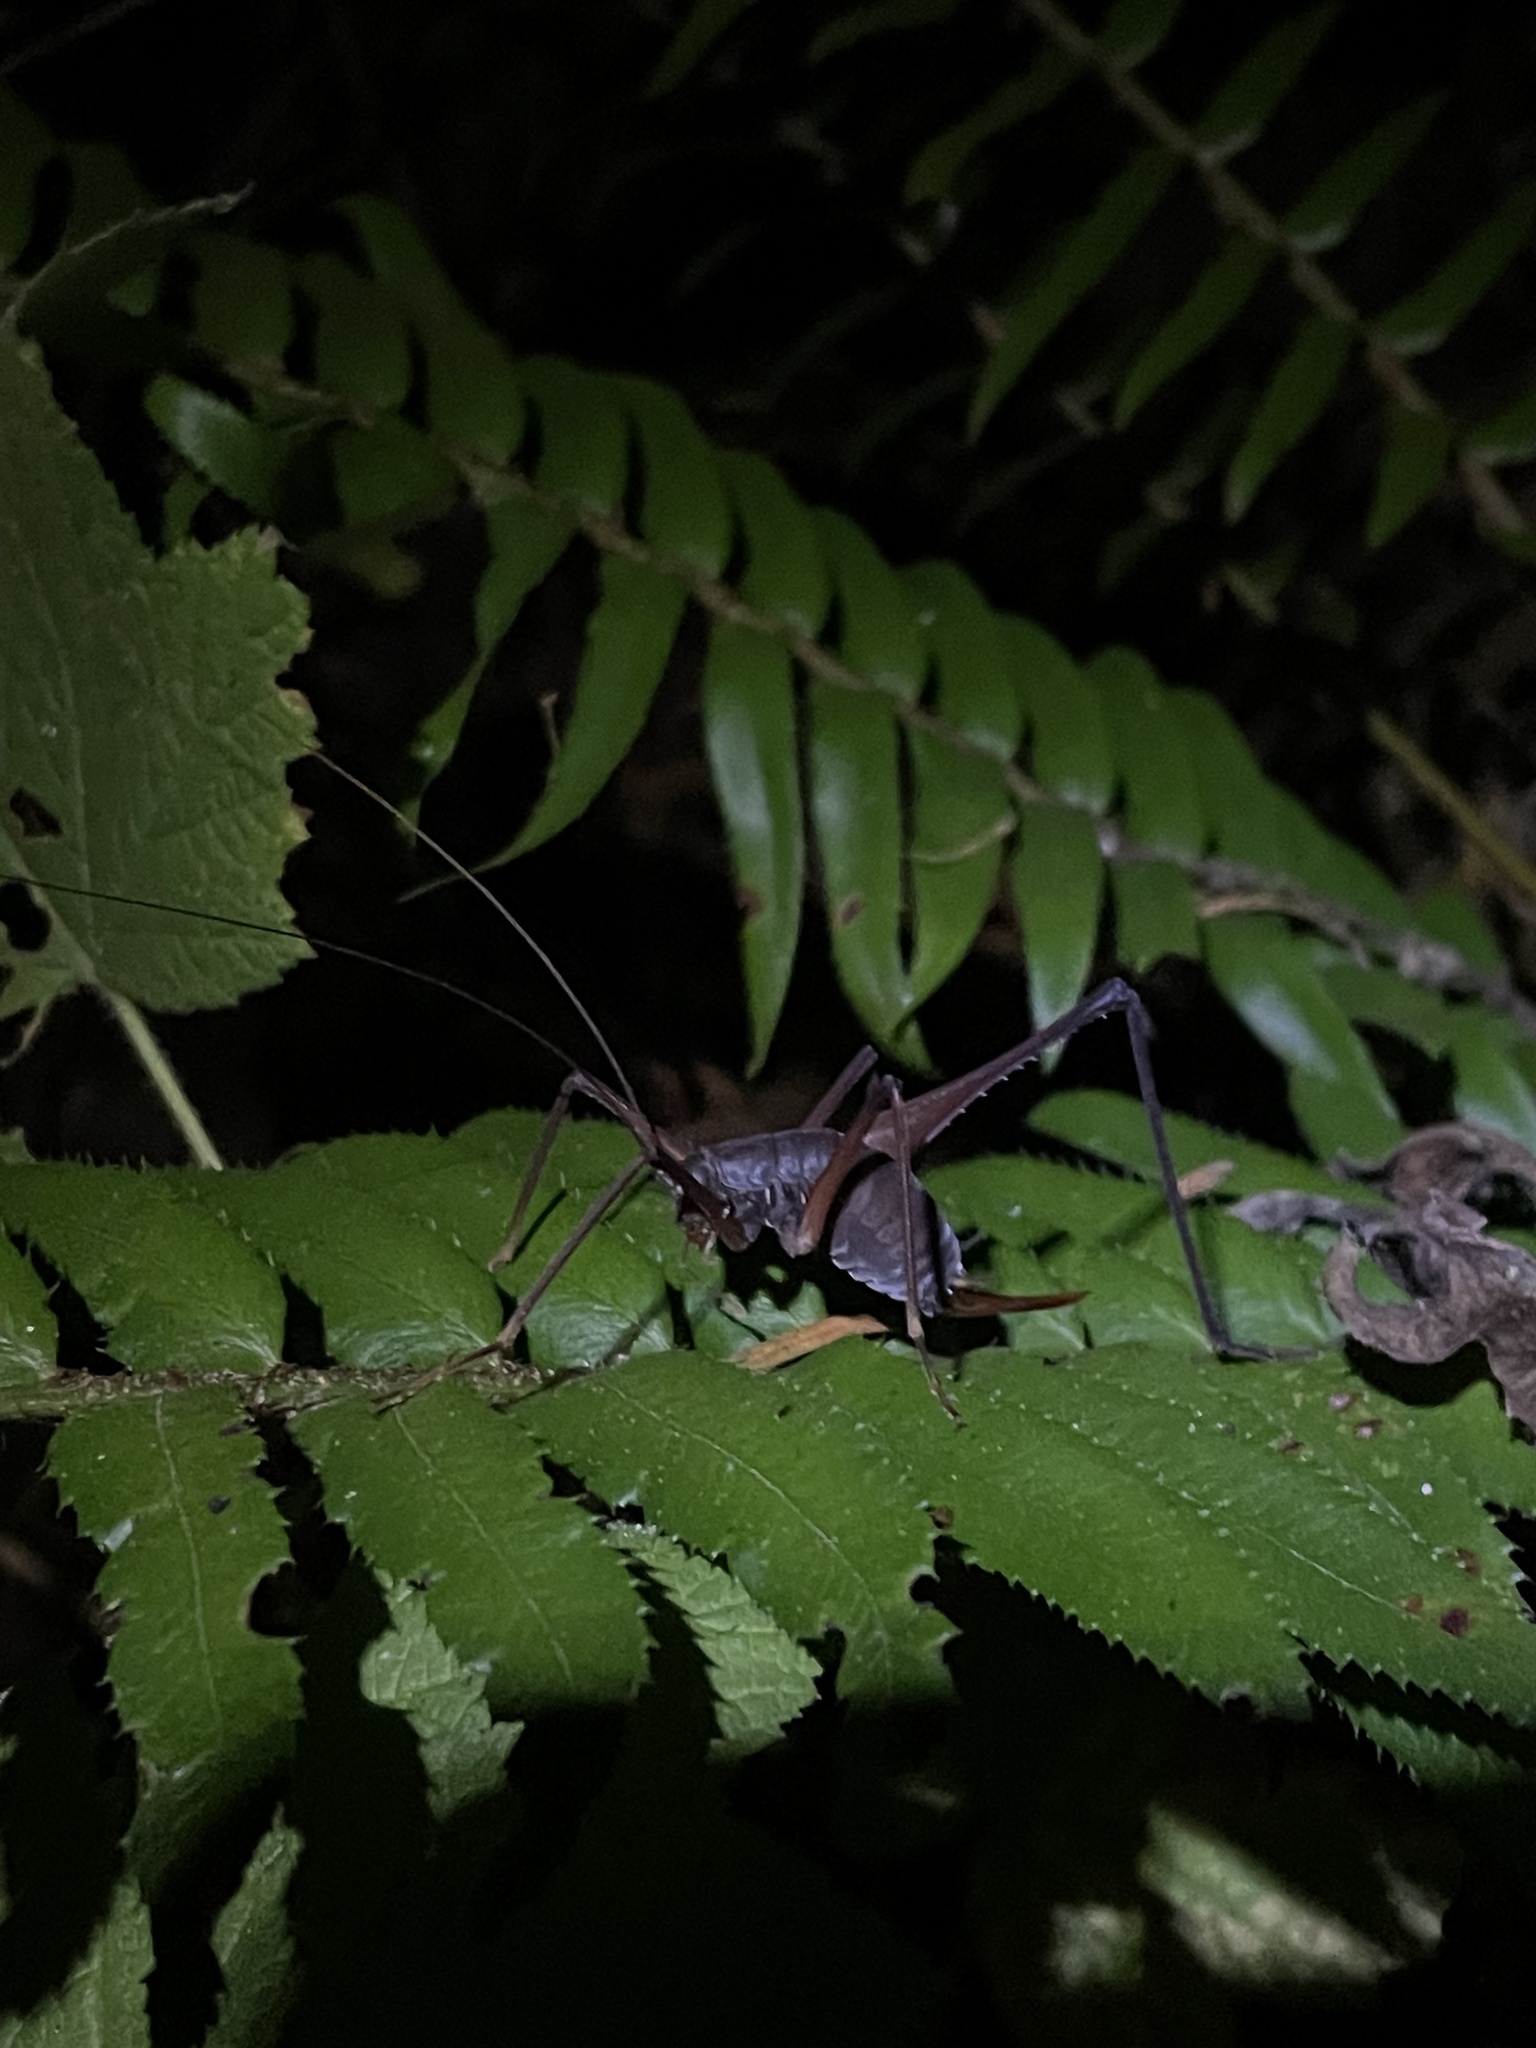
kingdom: Animalia
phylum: Arthropoda
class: Insecta
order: Orthoptera
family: Rhaphidophoridae
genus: Tropidischia
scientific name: Tropidischia xanthostoma
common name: Square-legged camel cricket
